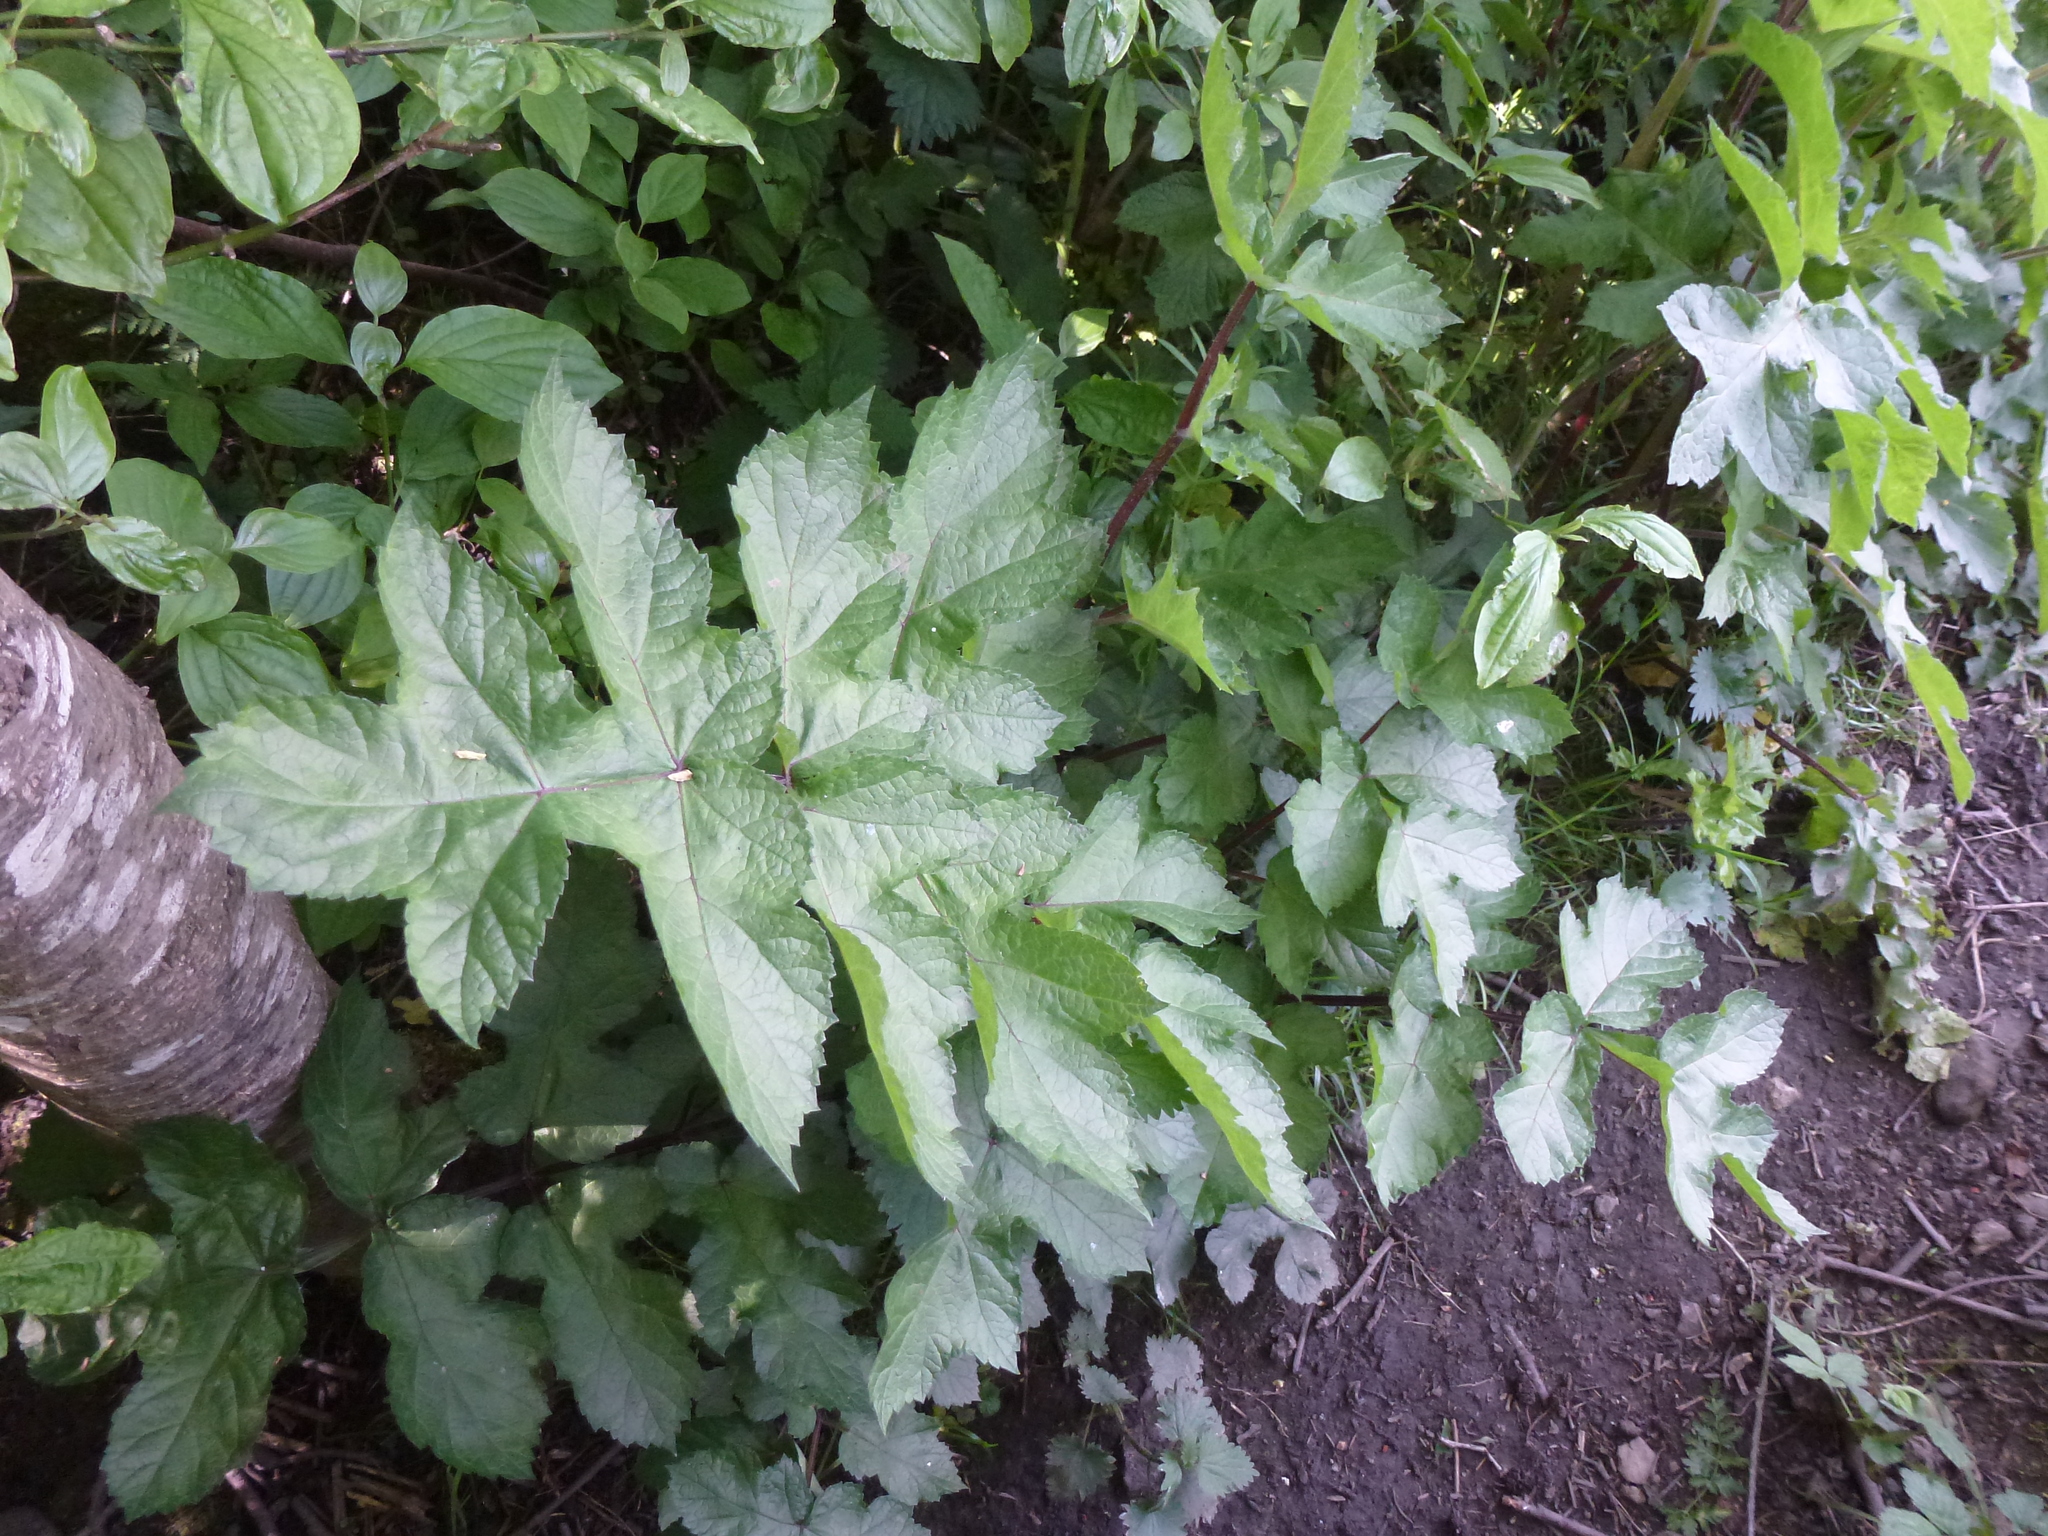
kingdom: Plantae
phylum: Tracheophyta
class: Magnoliopsida
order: Apiales
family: Apiaceae
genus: Heracleum
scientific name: Heracleum sphondylium
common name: Hogweed
